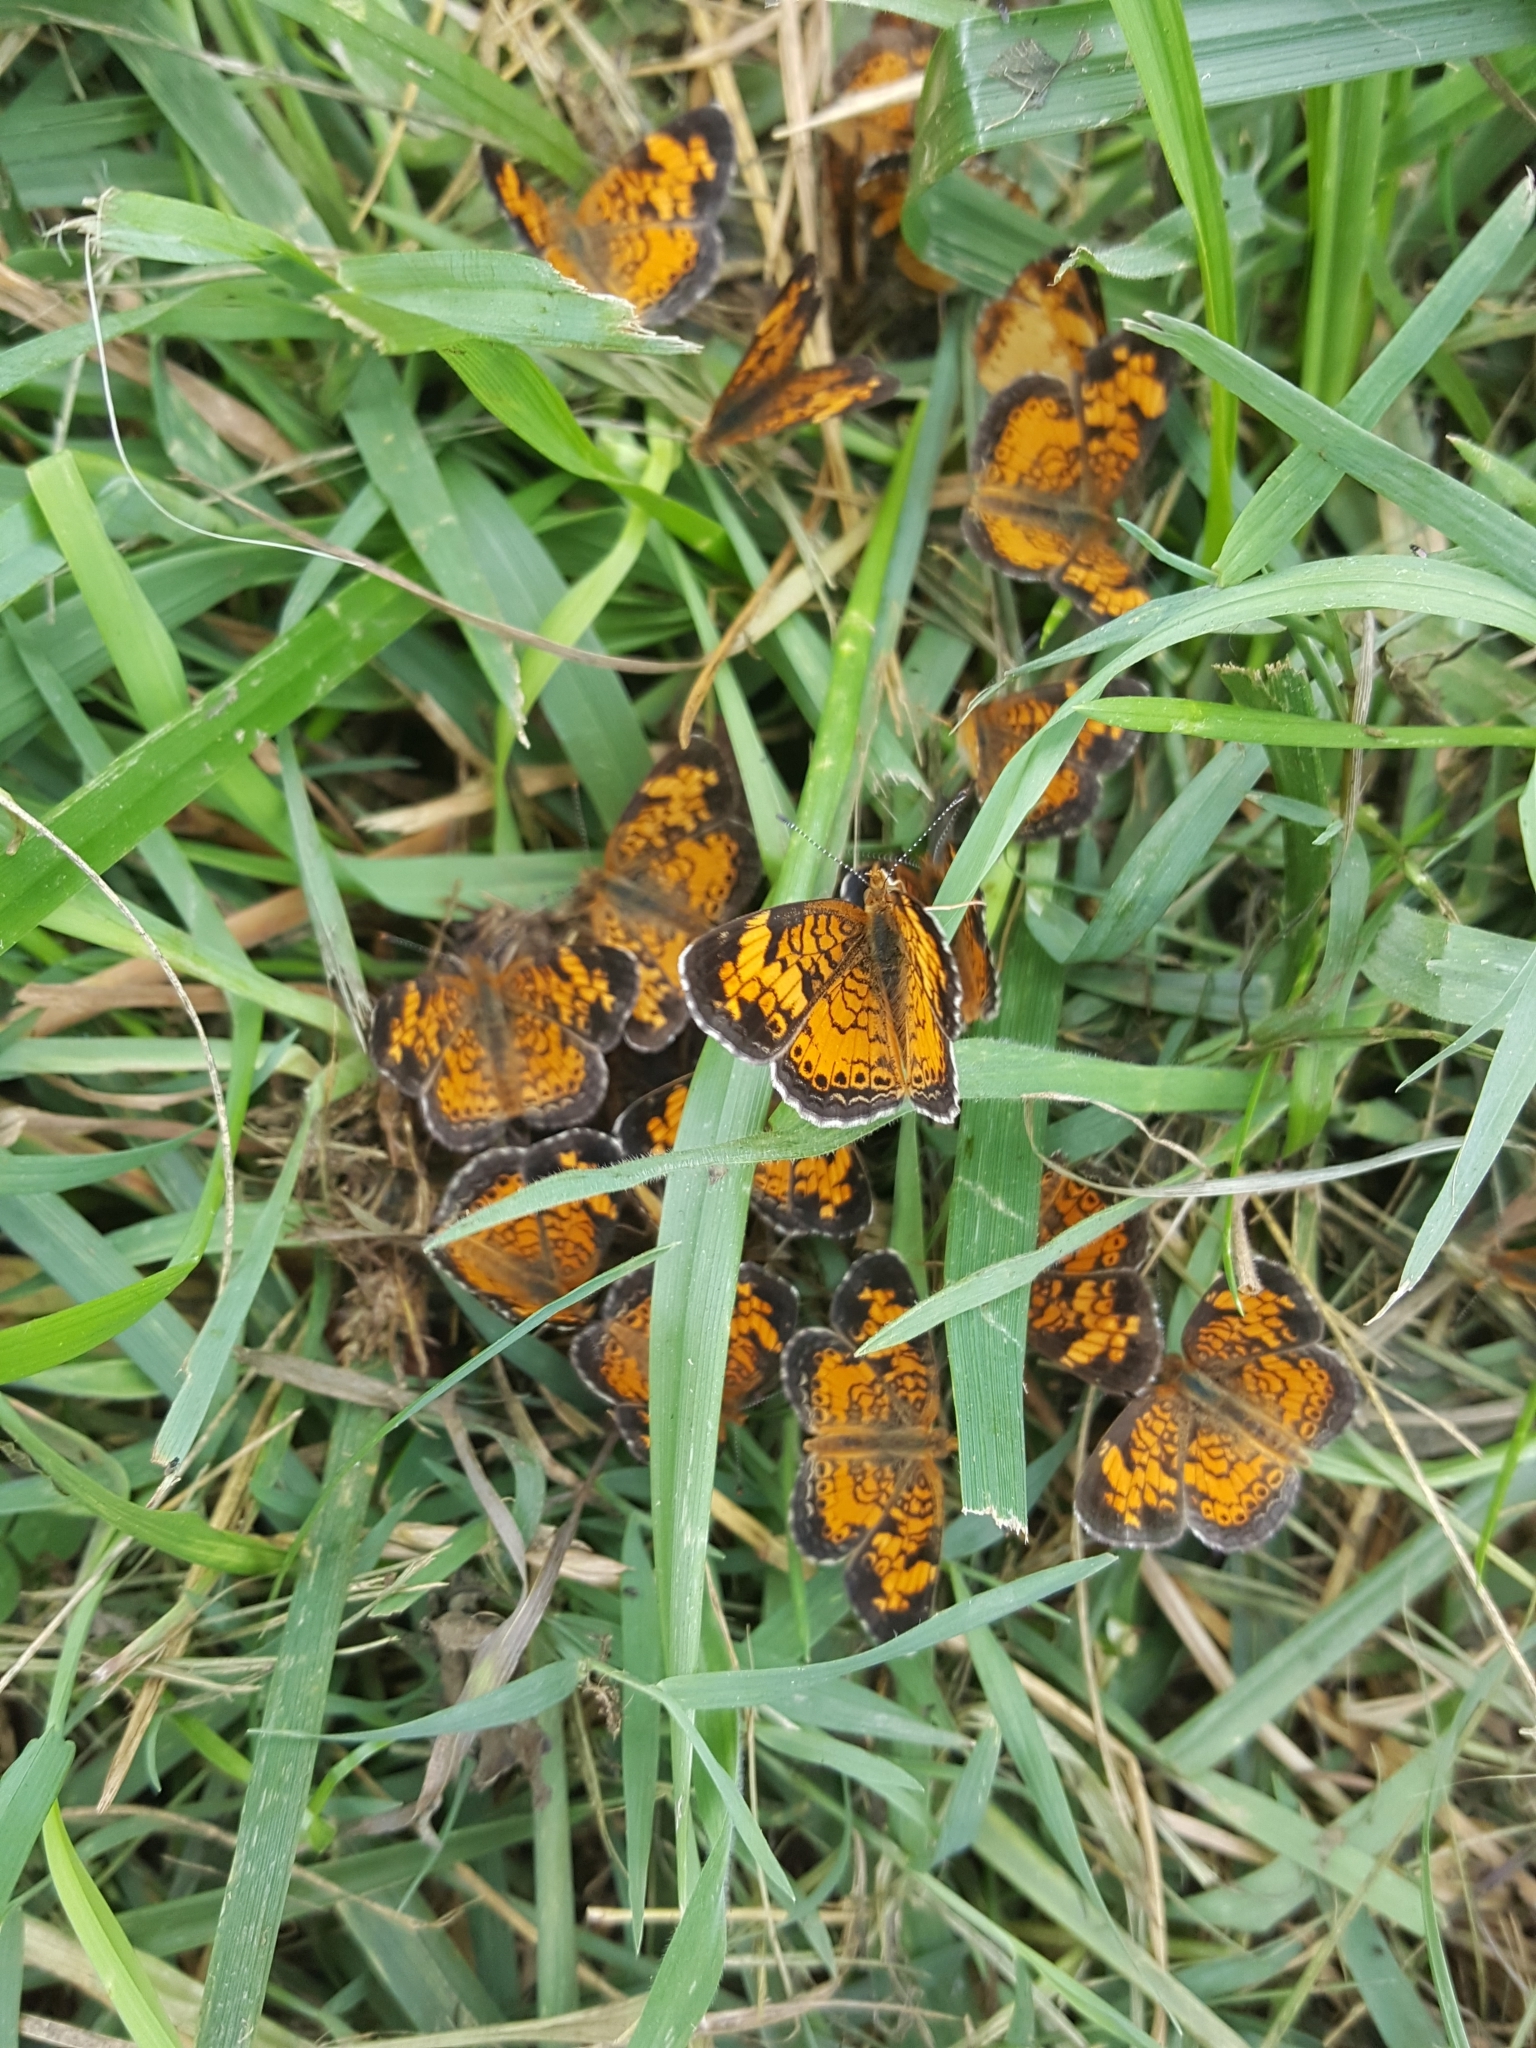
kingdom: Animalia
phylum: Arthropoda
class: Insecta
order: Lepidoptera
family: Nymphalidae
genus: Phyciodes
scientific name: Phyciodes tharos
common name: Pearl crescent
